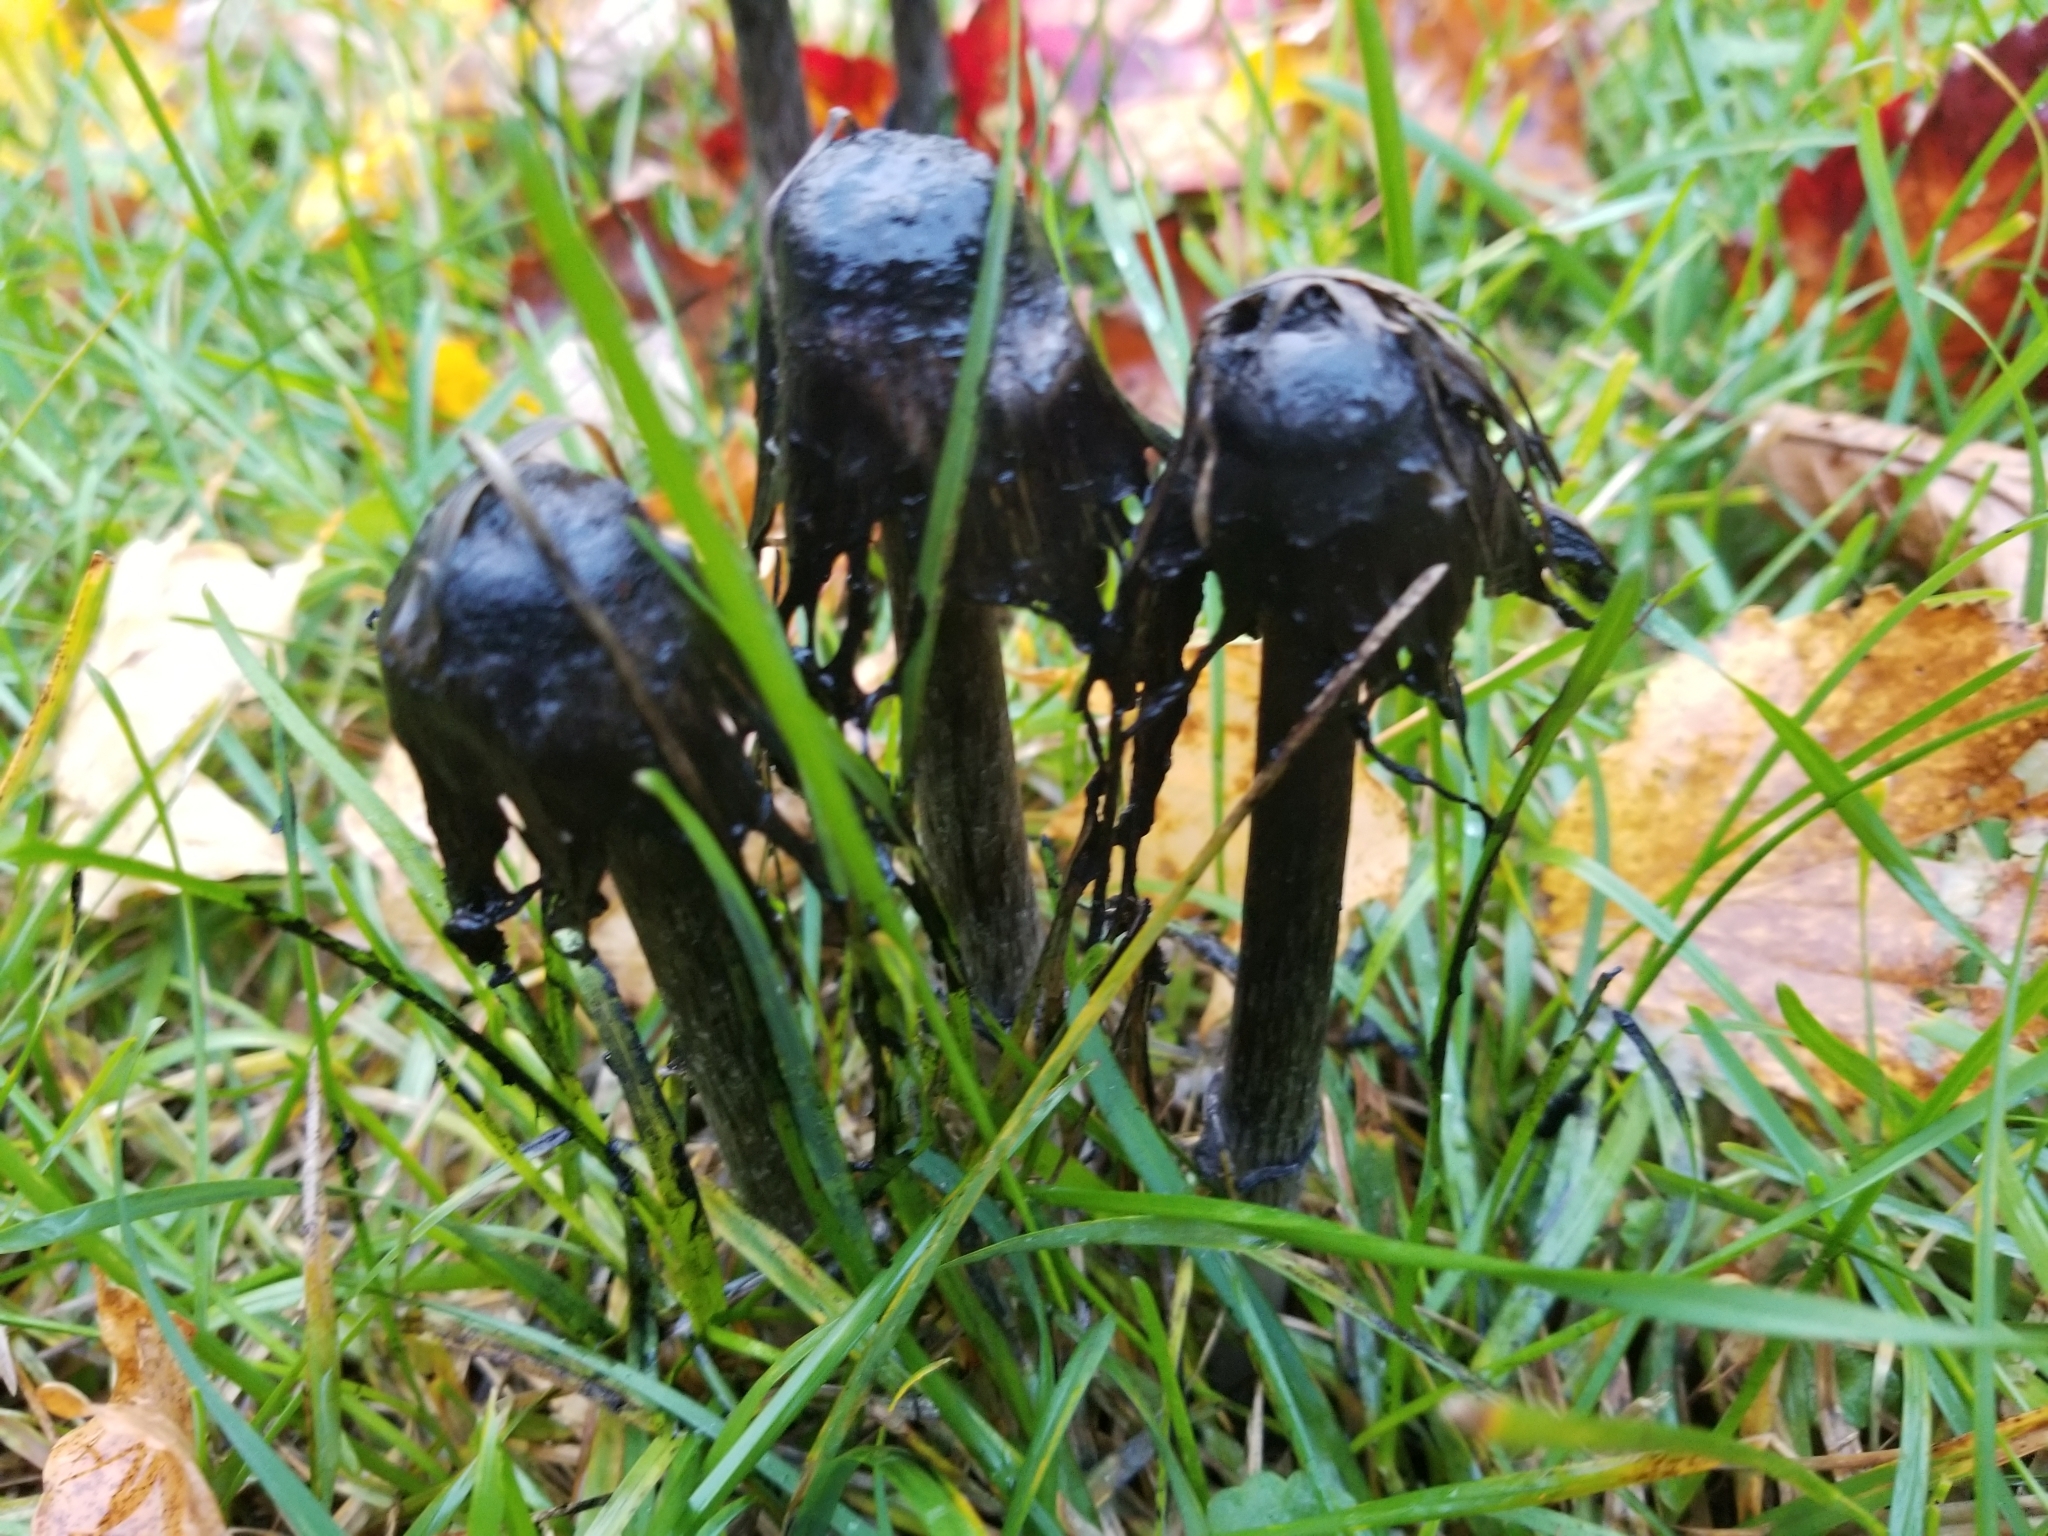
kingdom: Fungi
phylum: Basidiomycota
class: Agaricomycetes
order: Agaricales
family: Agaricaceae
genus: Coprinus
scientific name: Coprinus comatus
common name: Lawyer's wig
